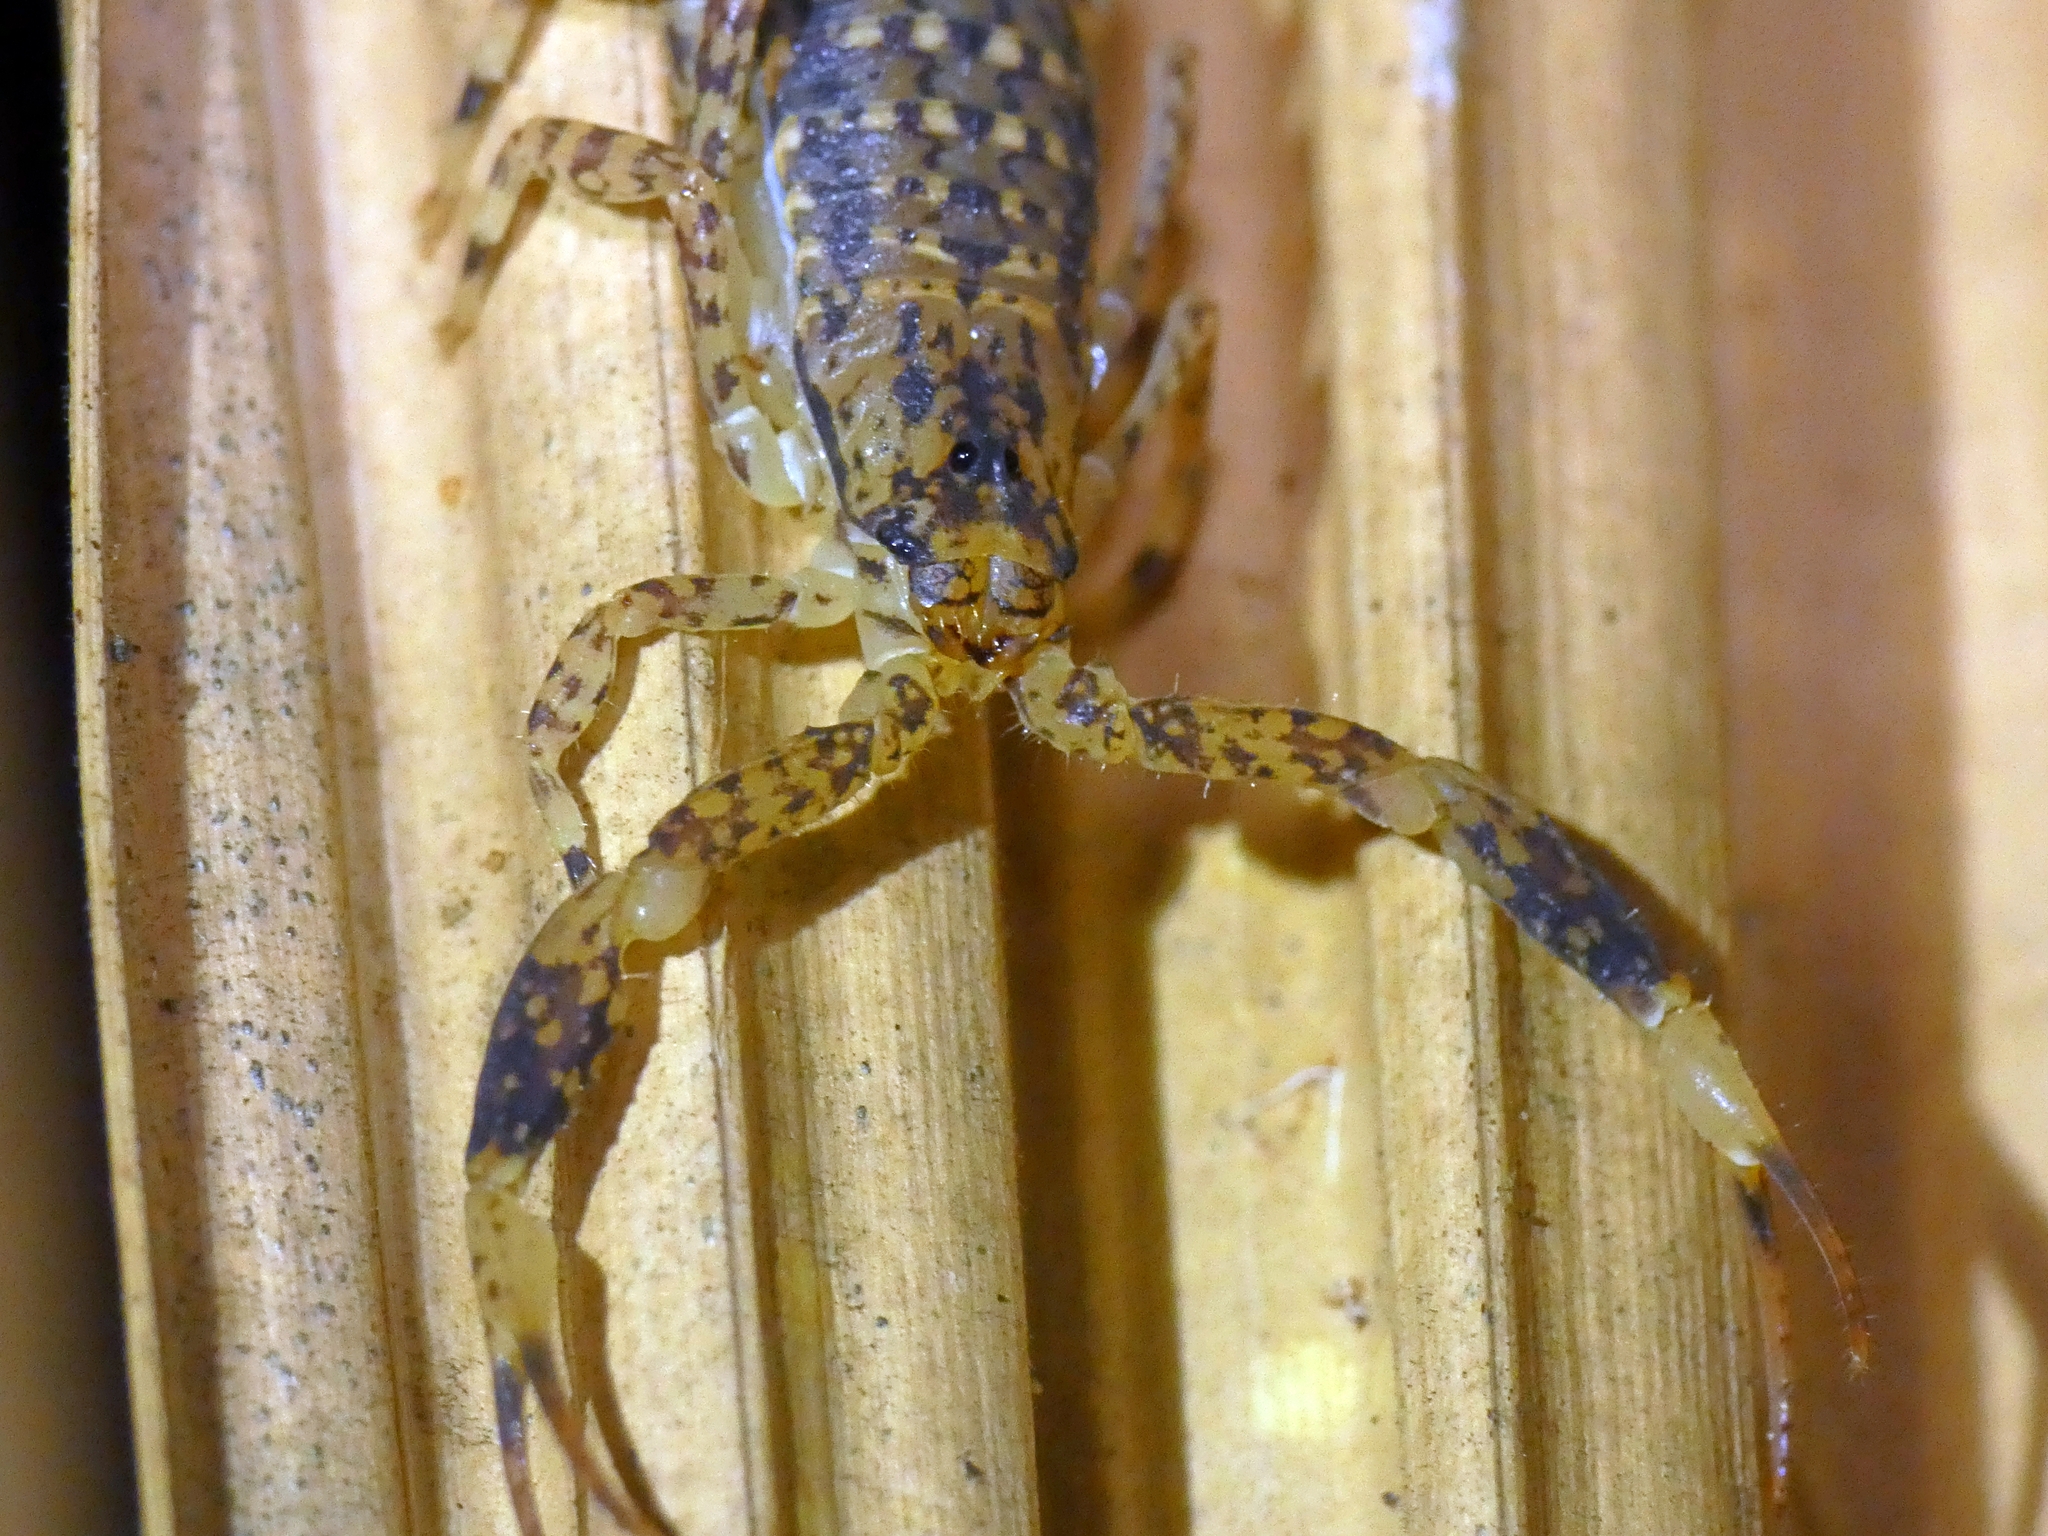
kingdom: Animalia
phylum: Arthropoda
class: Arachnida
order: Scorpiones
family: Buthidae
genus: Lychas
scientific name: Lychas variatus
